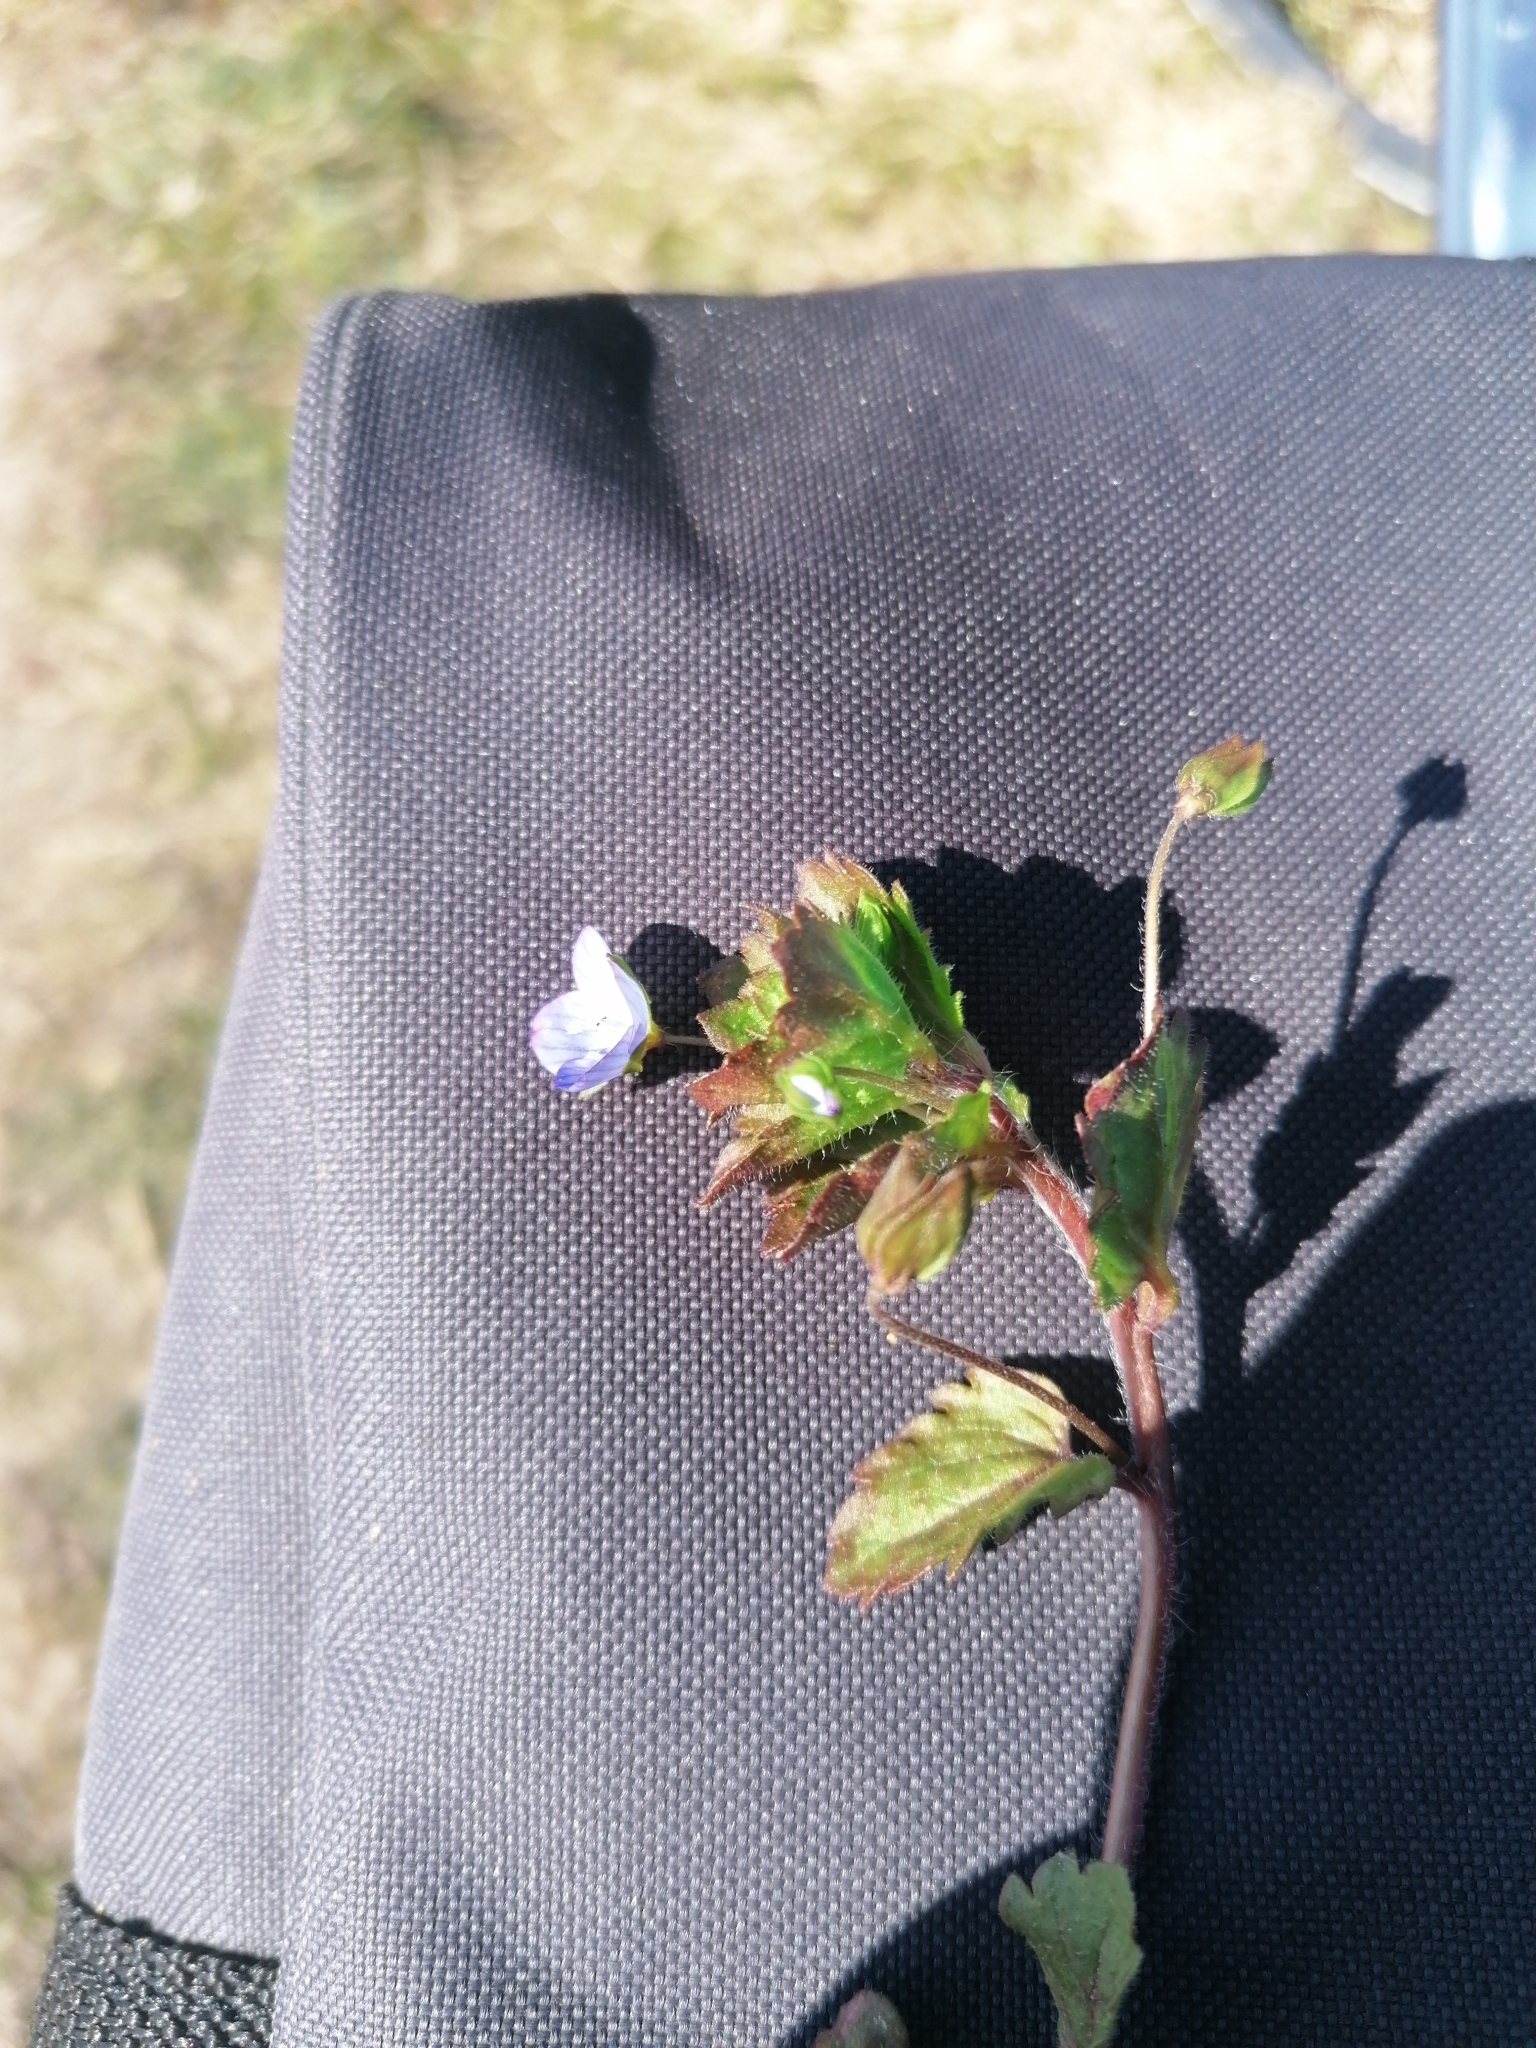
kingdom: Plantae
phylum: Tracheophyta
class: Magnoliopsida
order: Lamiales
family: Plantaginaceae
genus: Veronica
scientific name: Veronica persica
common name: Common field-speedwell
